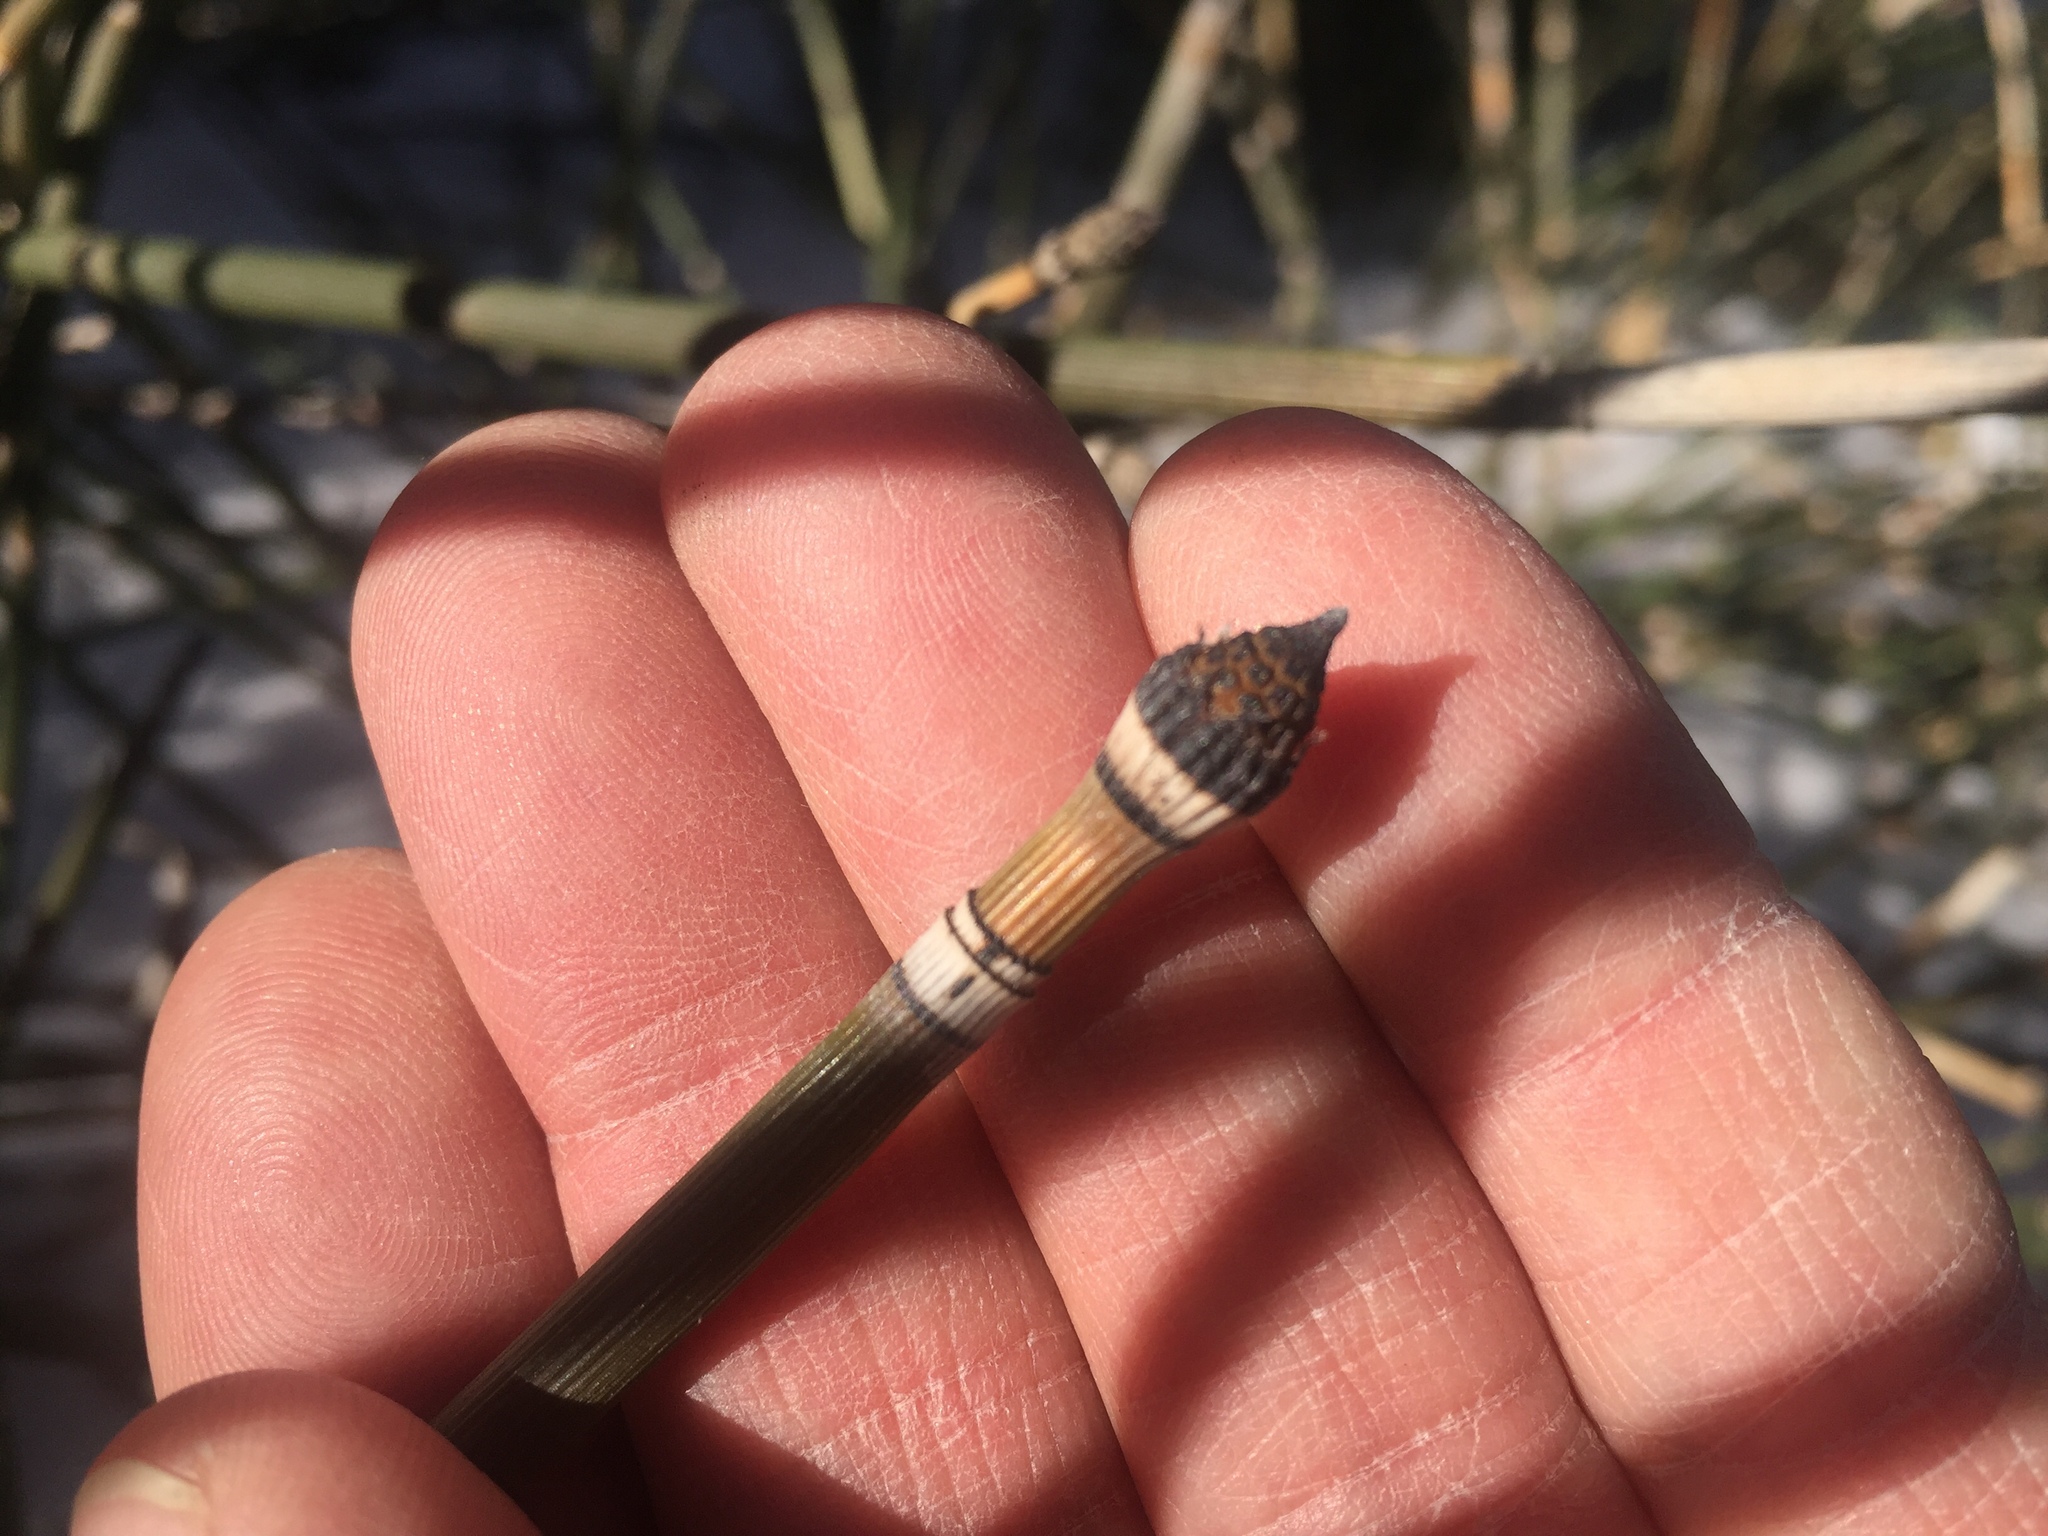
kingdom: Plantae
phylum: Tracheophyta
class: Polypodiopsida
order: Equisetales
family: Equisetaceae
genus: Equisetum
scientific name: Equisetum hyemale
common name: Rough horsetail
